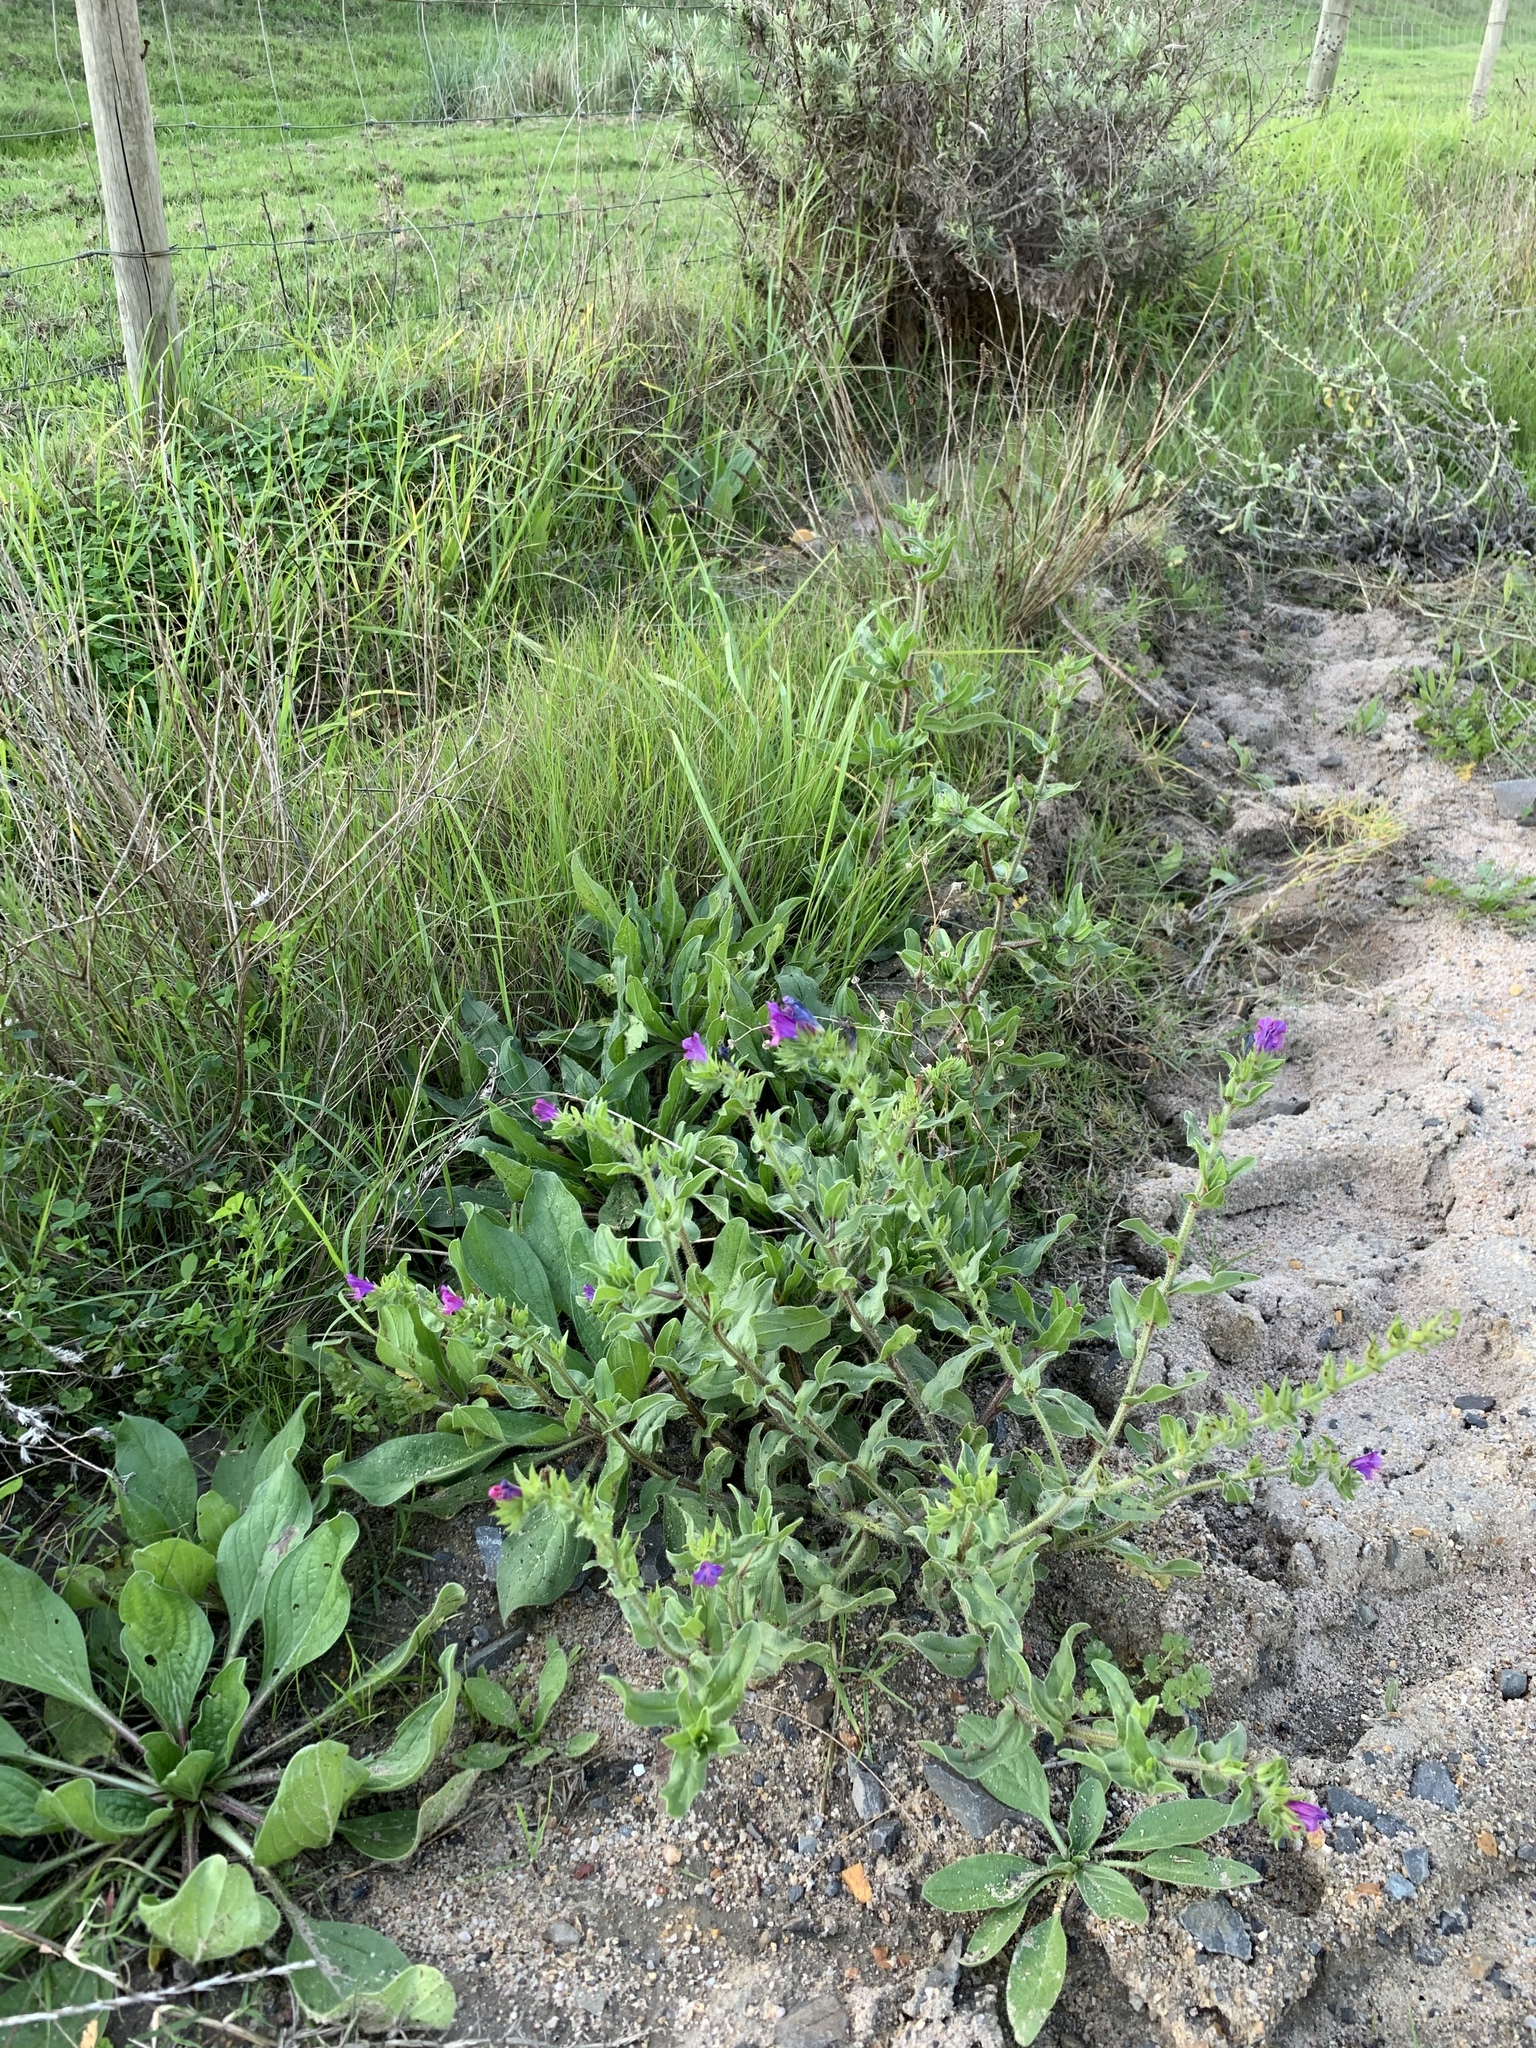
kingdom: Plantae
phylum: Tracheophyta
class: Magnoliopsida
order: Boraginales
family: Boraginaceae
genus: Echium
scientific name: Echium plantagineum
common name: Purple viper's-bugloss
